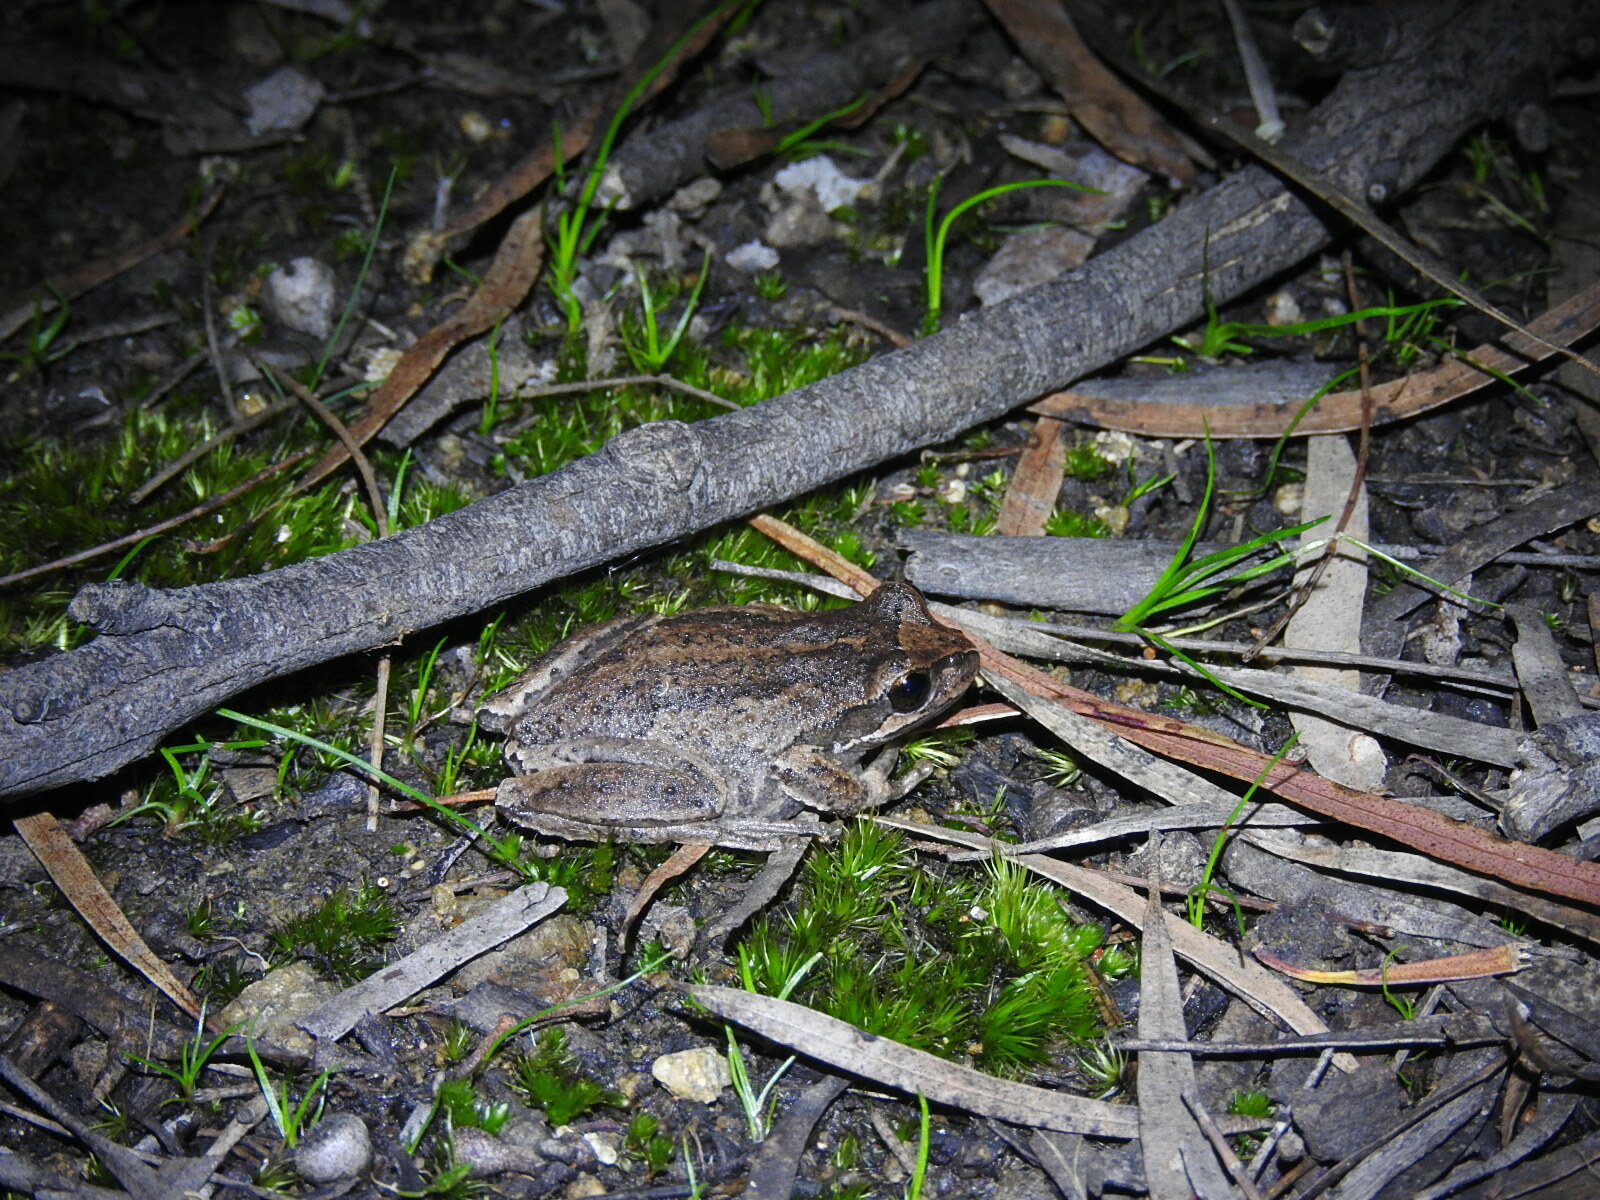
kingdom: Animalia
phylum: Chordata
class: Amphibia
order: Anura
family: Pelodryadidae
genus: Litoria
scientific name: Litoria ewingii
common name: Southern brown tree frog
